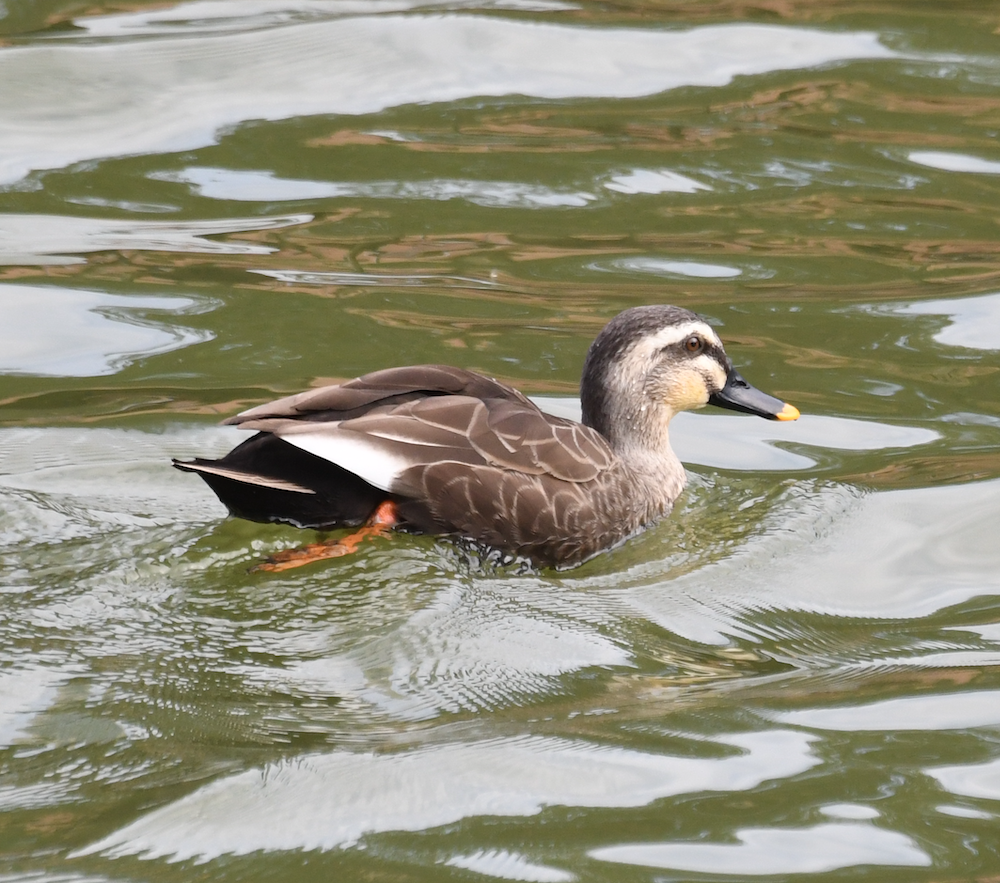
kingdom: Animalia
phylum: Chordata
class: Aves
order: Anseriformes
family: Anatidae
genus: Anas
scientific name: Anas zonorhyncha
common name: Eastern spot-billed duck
